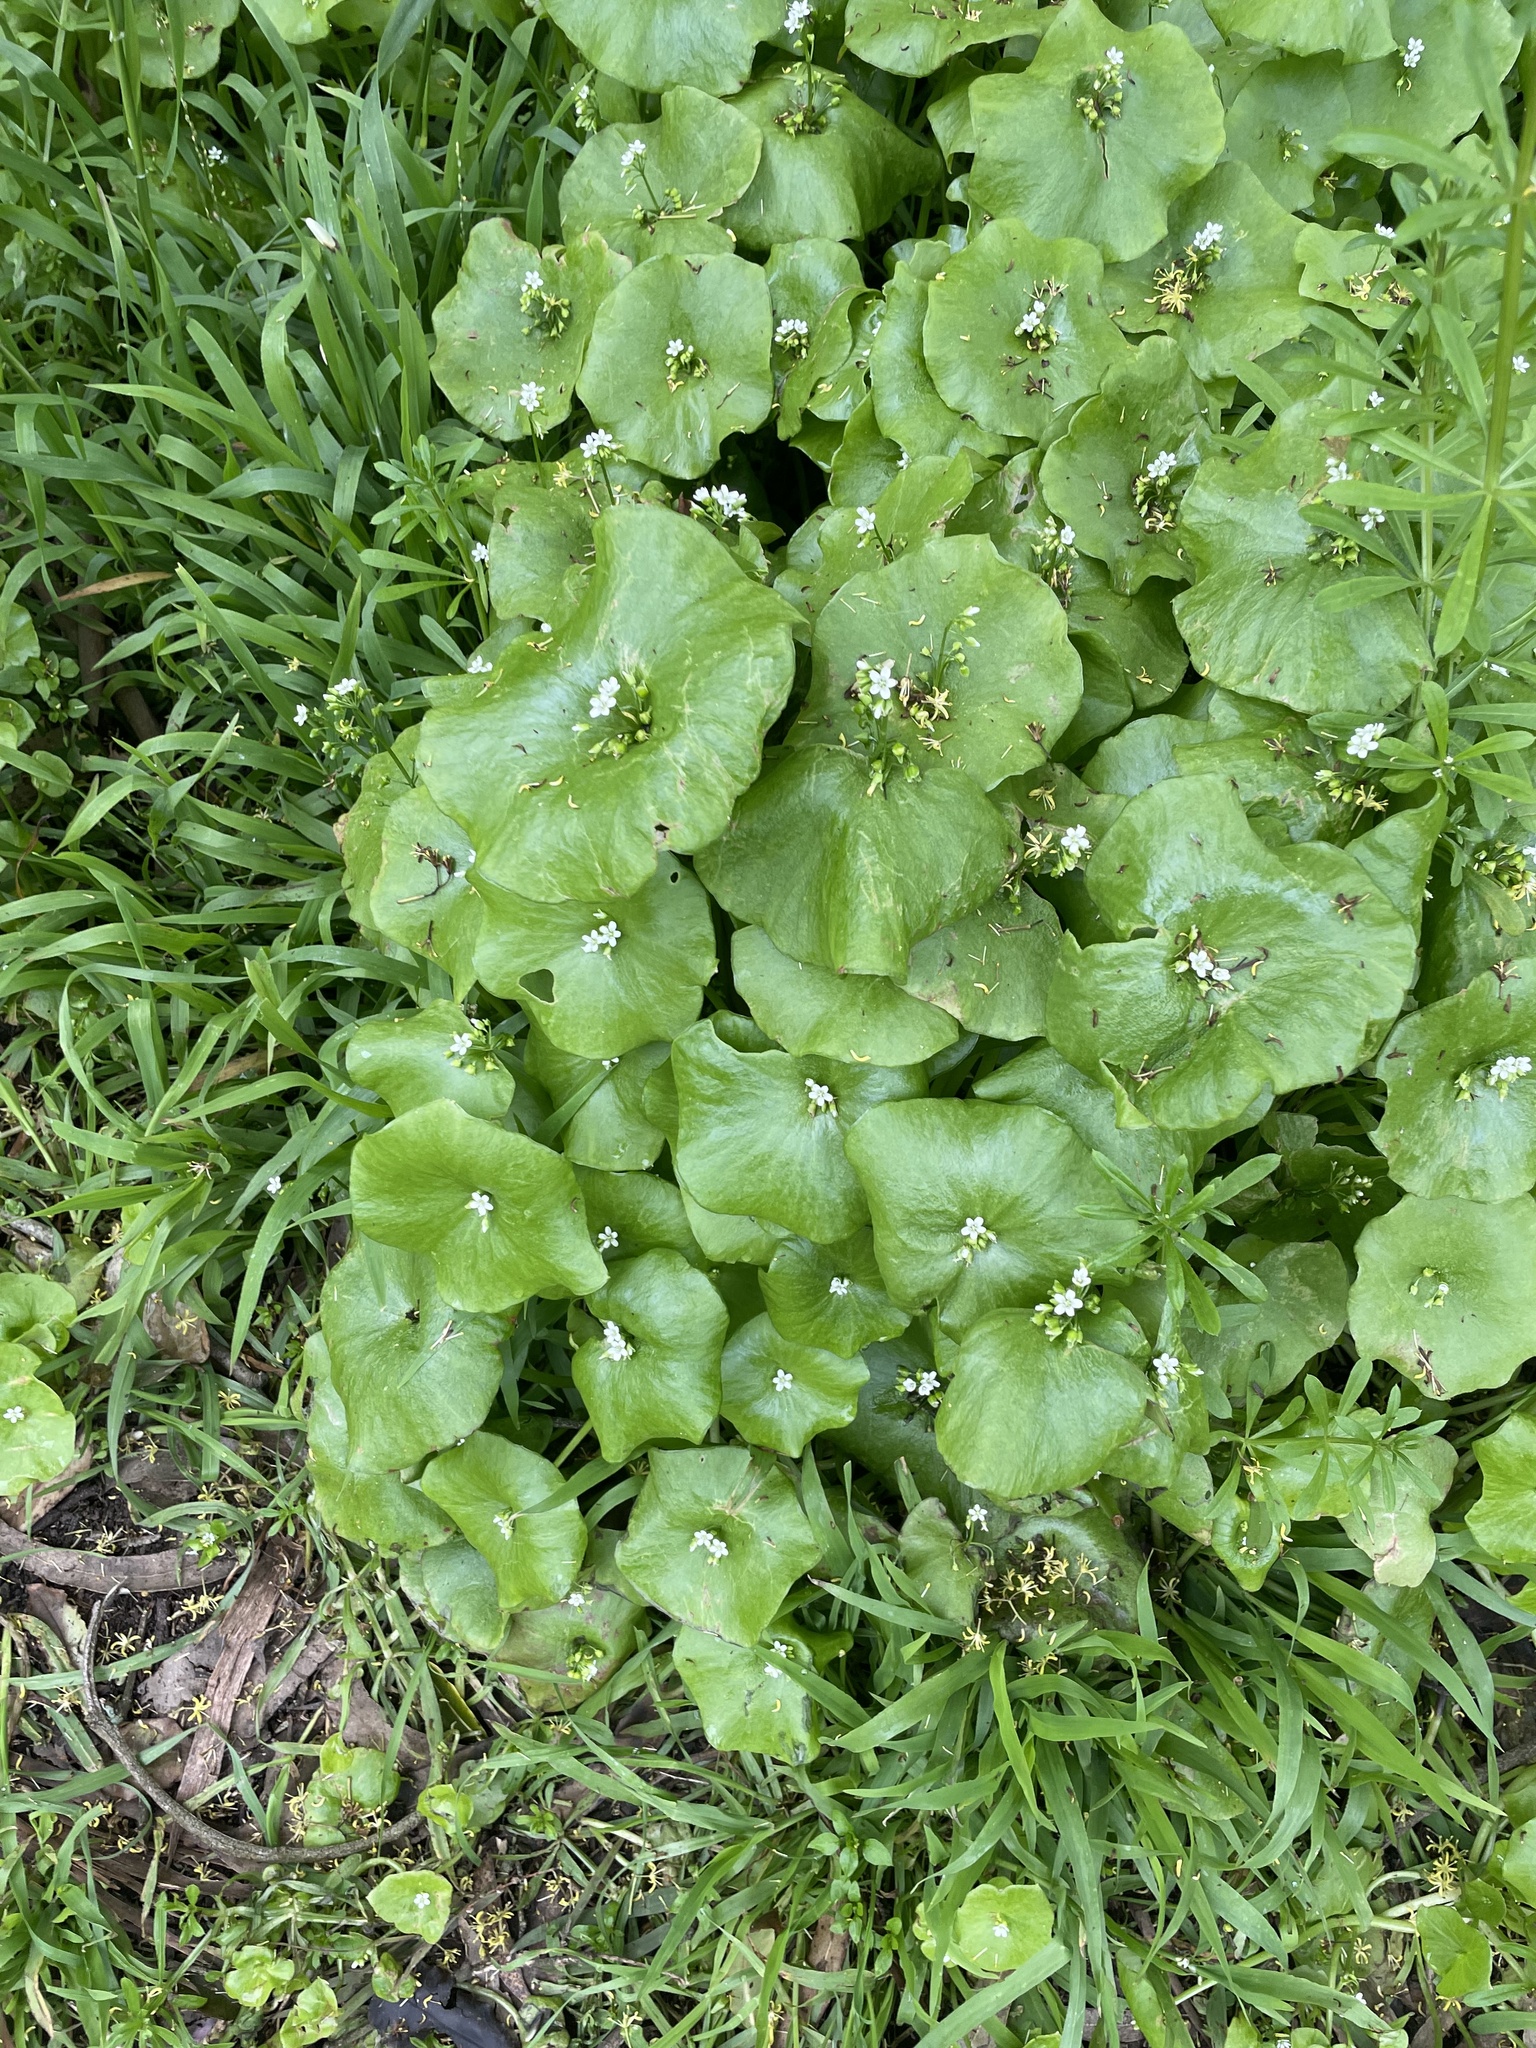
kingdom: Plantae
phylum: Tracheophyta
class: Magnoliopsida
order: Caryophyllales
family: Montiaceae
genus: Claytonia
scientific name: Claytonia perfoliata
